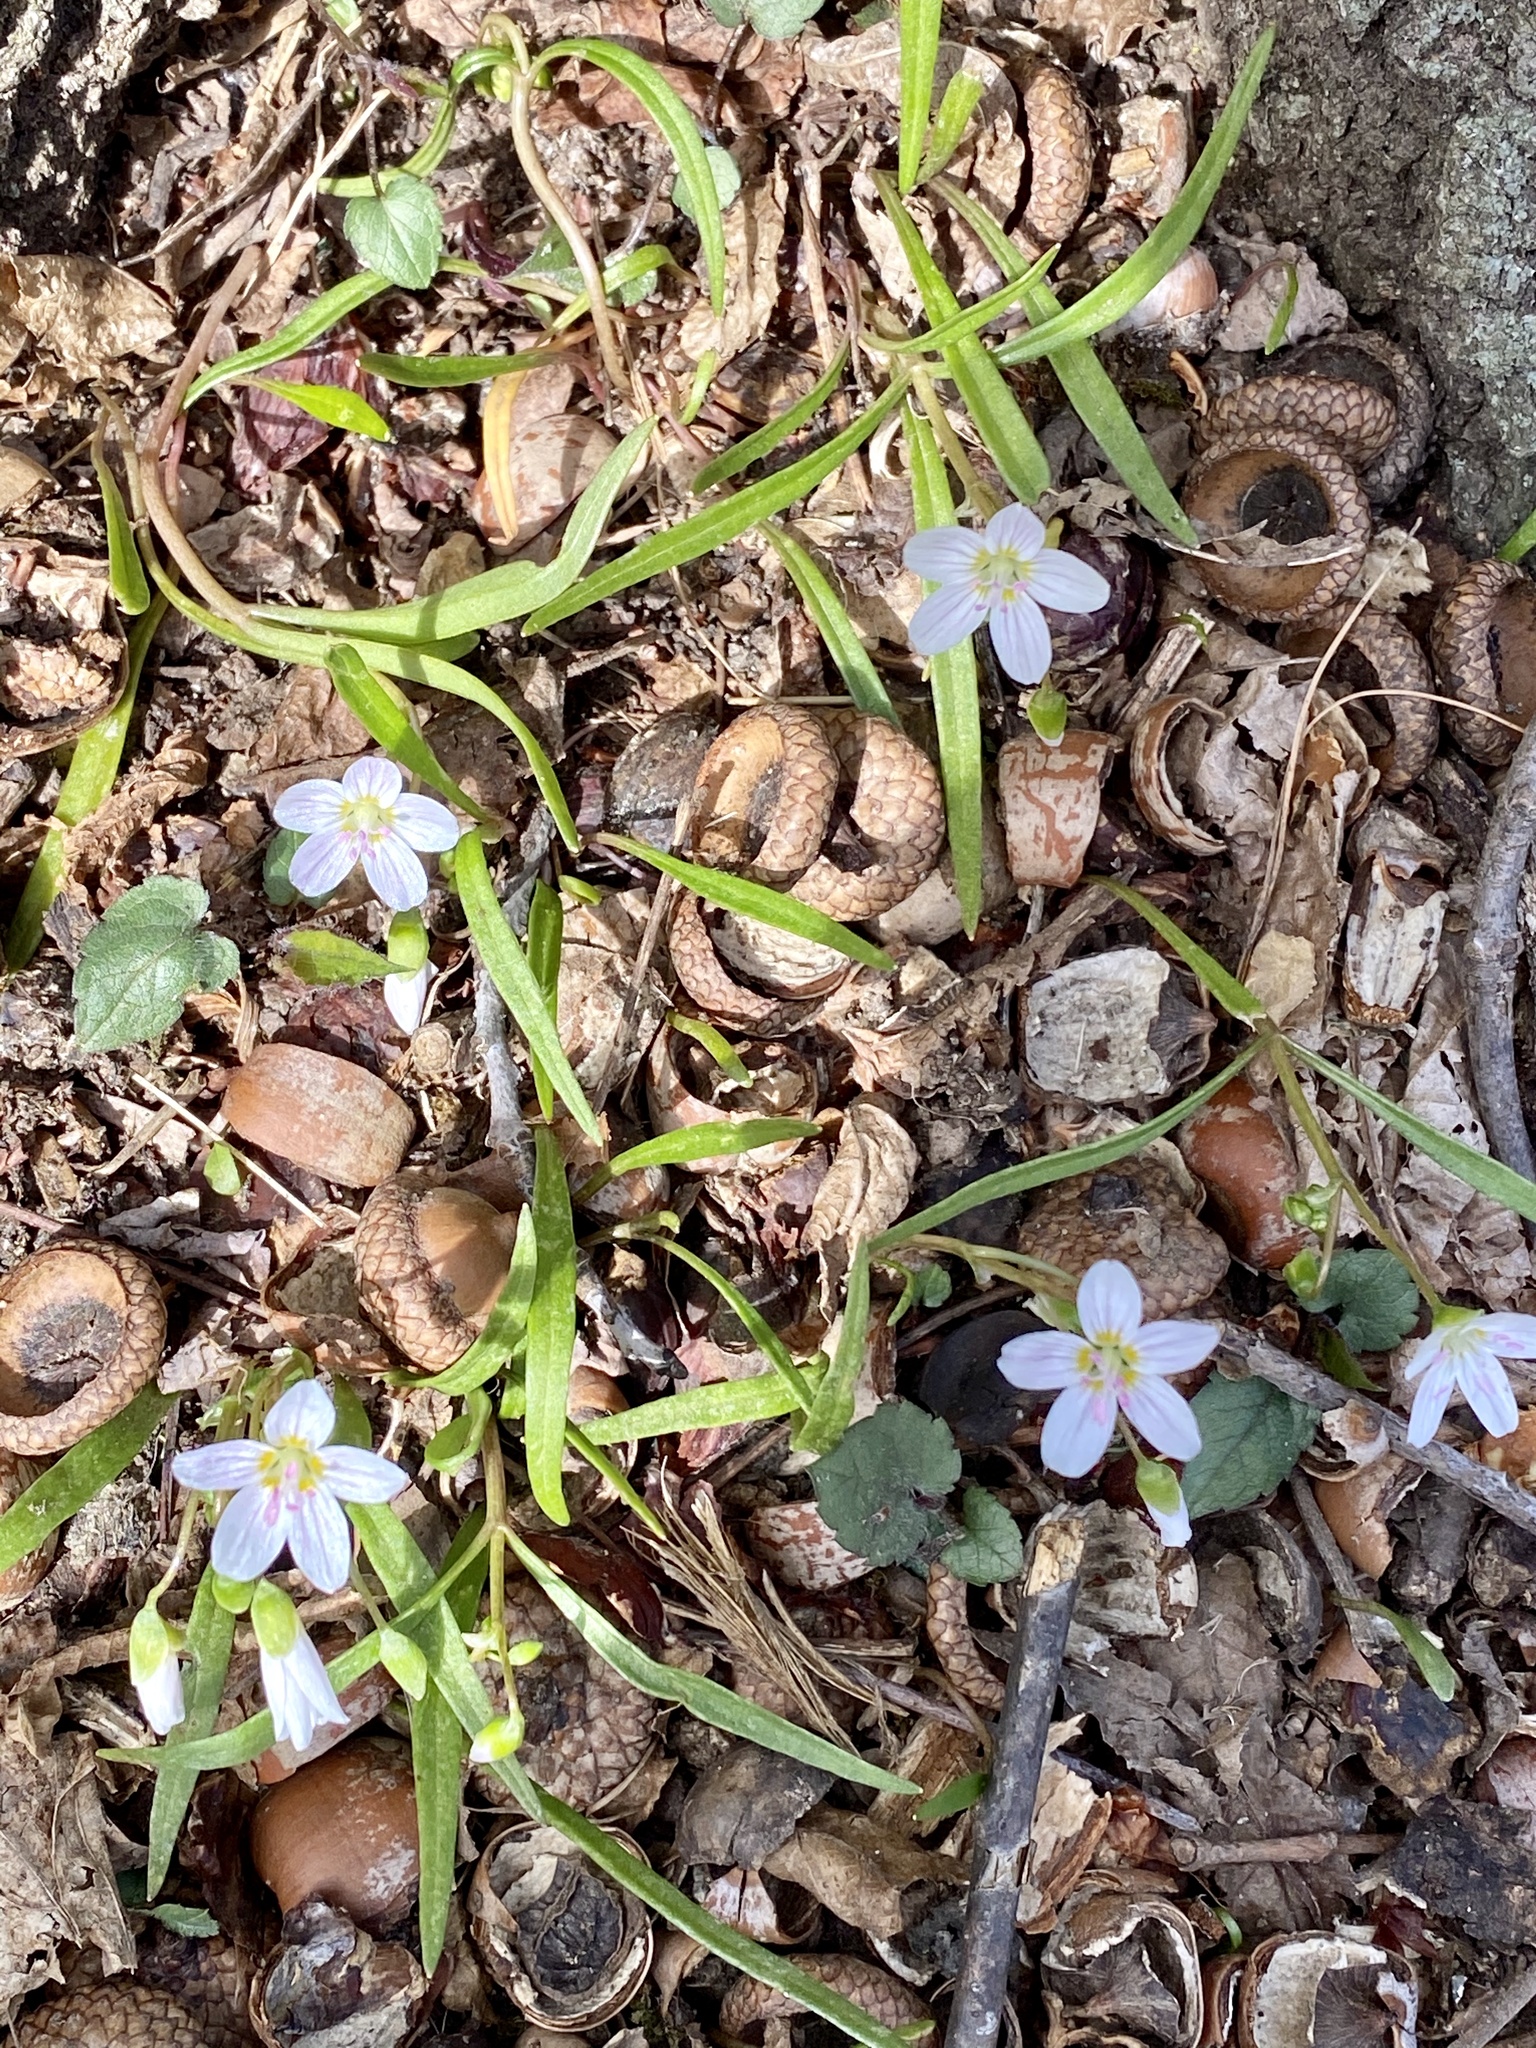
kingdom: Plantae
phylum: Tracheophyta
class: Magnoliopsida
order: Caryophyllales
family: Montiaceae
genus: Claytonia
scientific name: Claytonia virginica
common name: Virginia springbeauty
